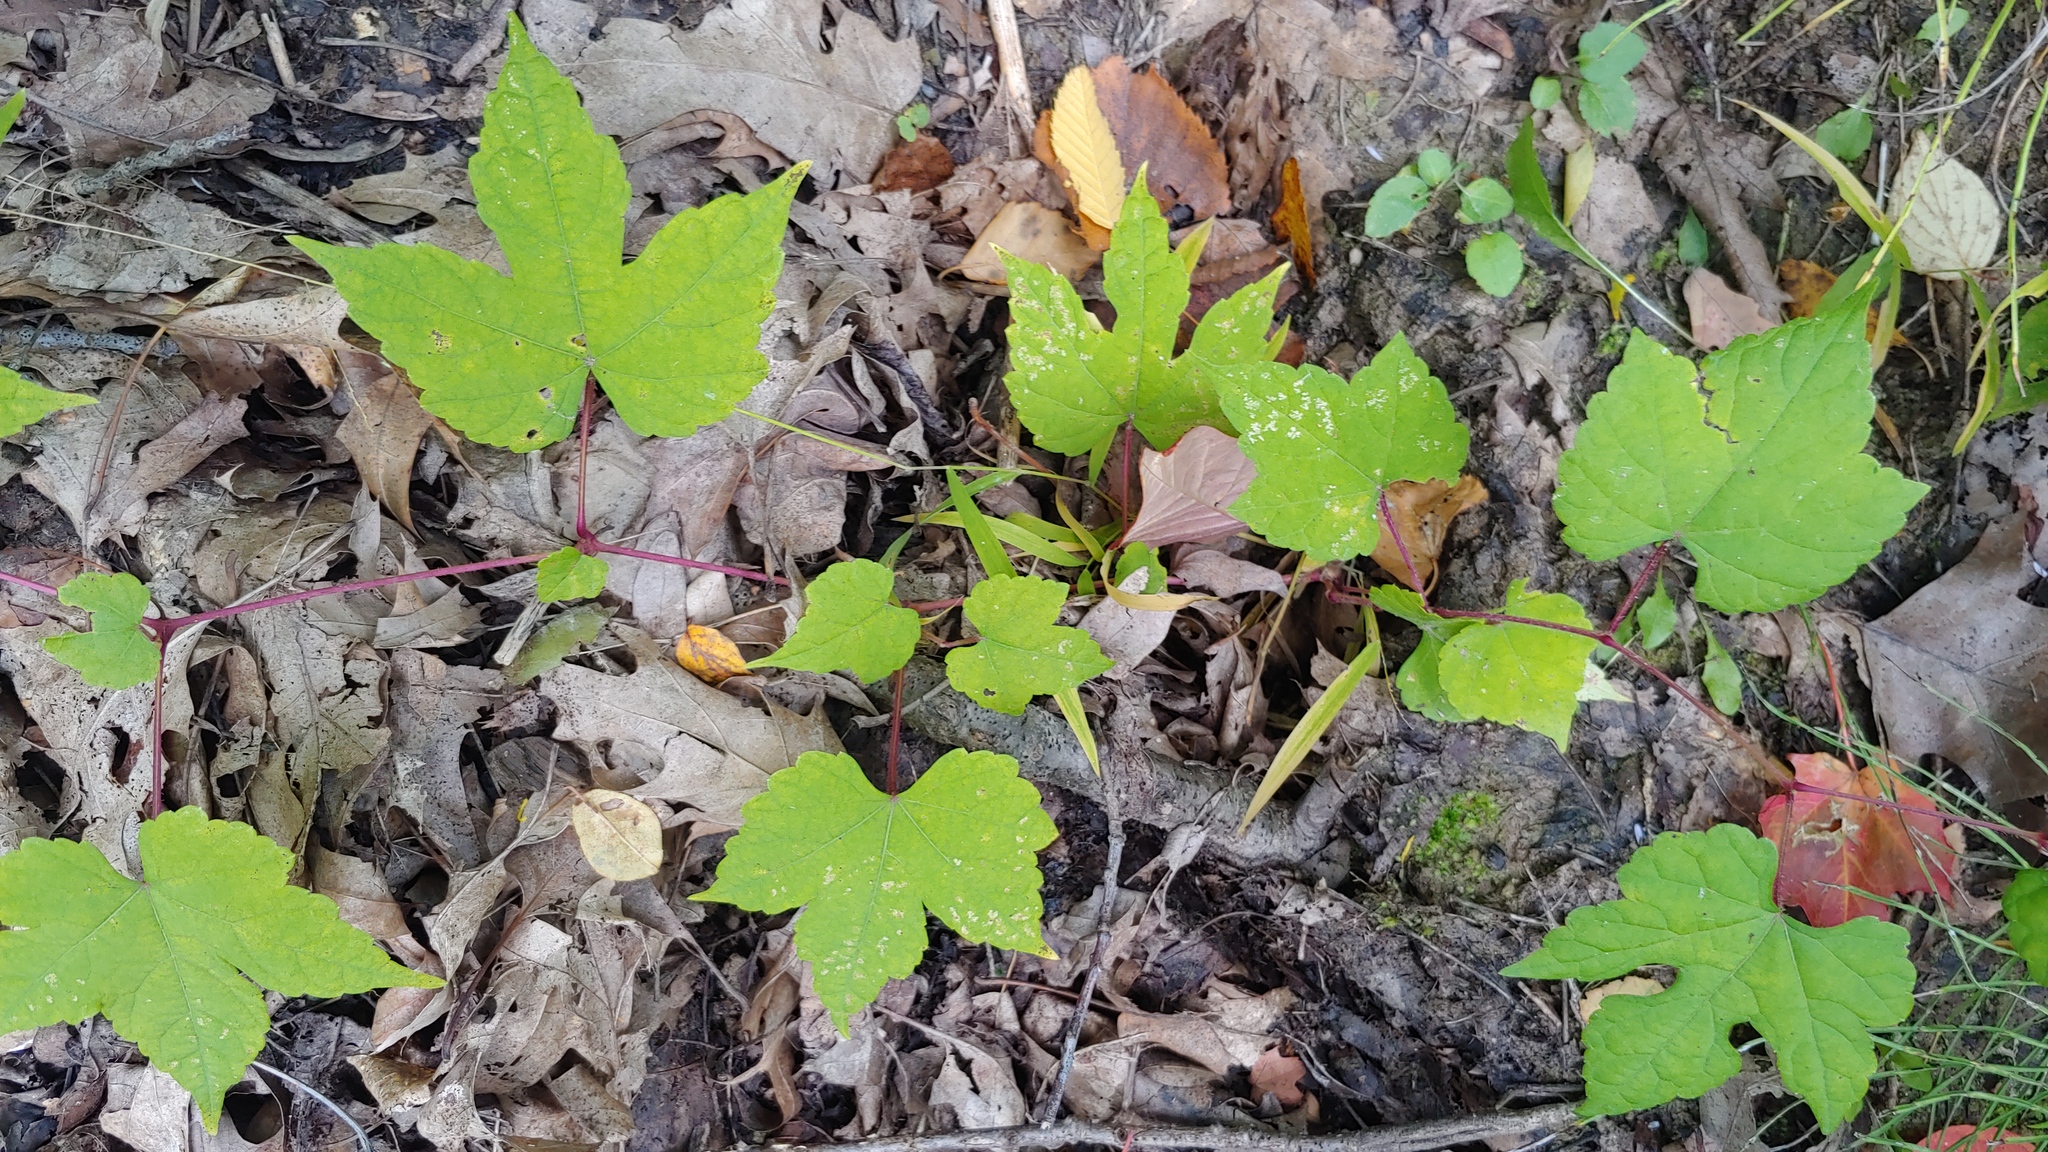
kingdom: Plantae
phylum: Tracheophyta
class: Magnoliopsida
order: Vitales
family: Vitaceae
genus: Ampelopsis
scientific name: Ampelopsis glandulosa
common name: Amur peppervine
